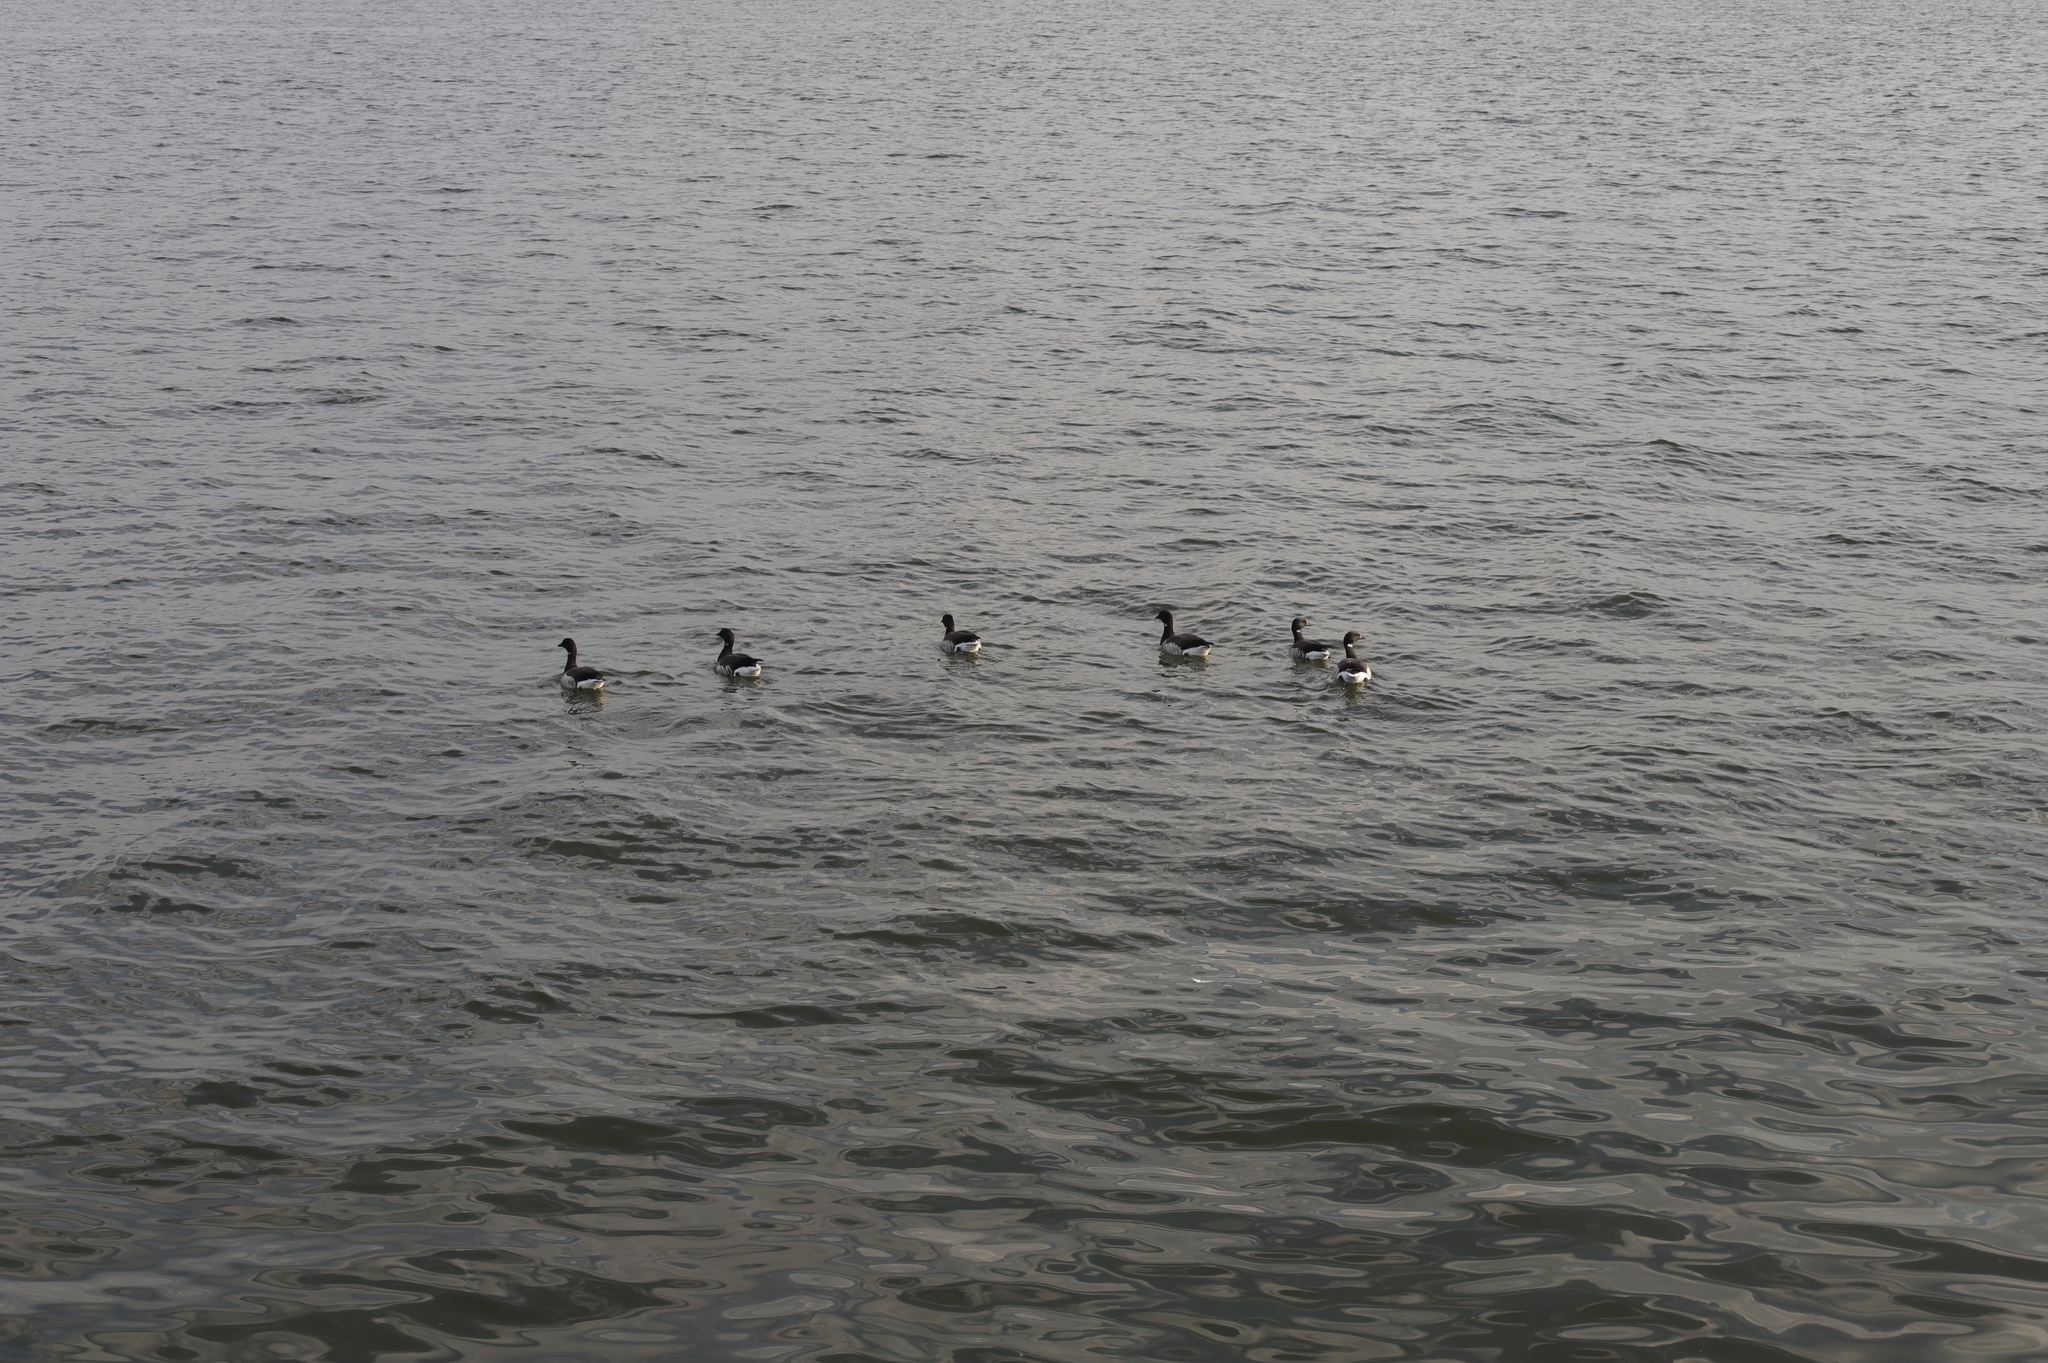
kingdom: Animalia
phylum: Chordata
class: Aves
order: Anseriformes
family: Anatidae
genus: Branta
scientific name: Branta bernicla
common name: Brant goose
